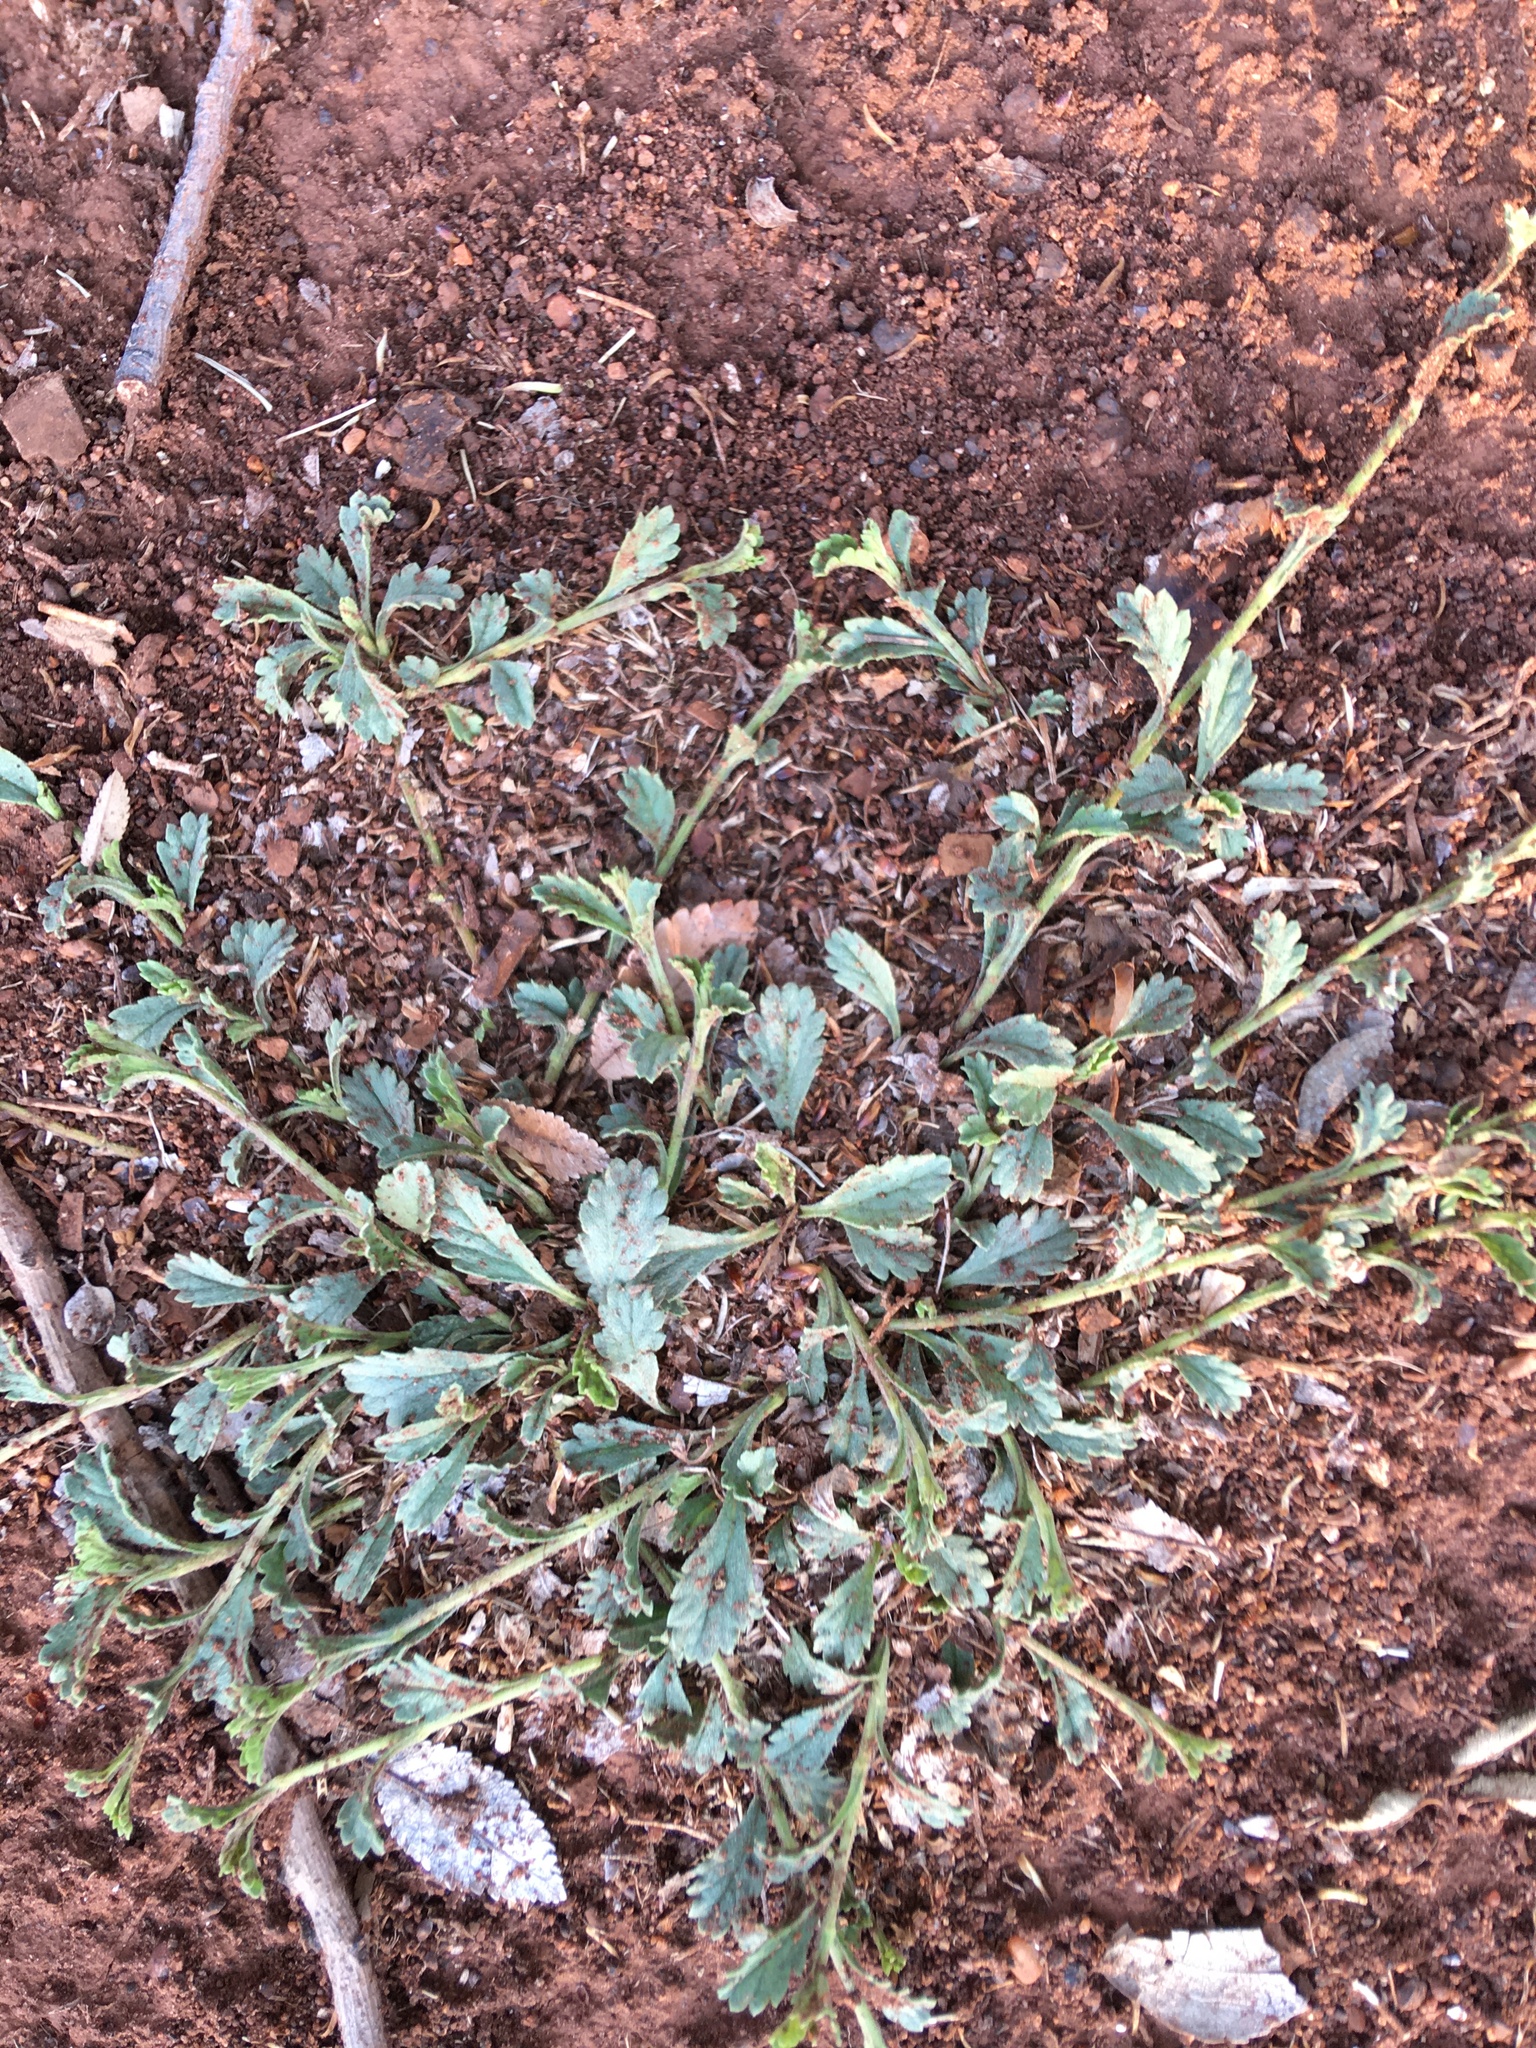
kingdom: Plantae
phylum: Tracheophyta
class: Magnoliopsida
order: Asterales
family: Asteraceae
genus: Nidorella
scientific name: Nidorella podocephala
